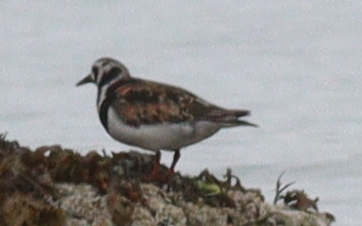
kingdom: Animalia
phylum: Chordata
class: Aves
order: Charadriiformes
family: Scolopacidae
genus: Arenaria
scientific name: Arenaria interpres
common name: Ruddy turnstone
